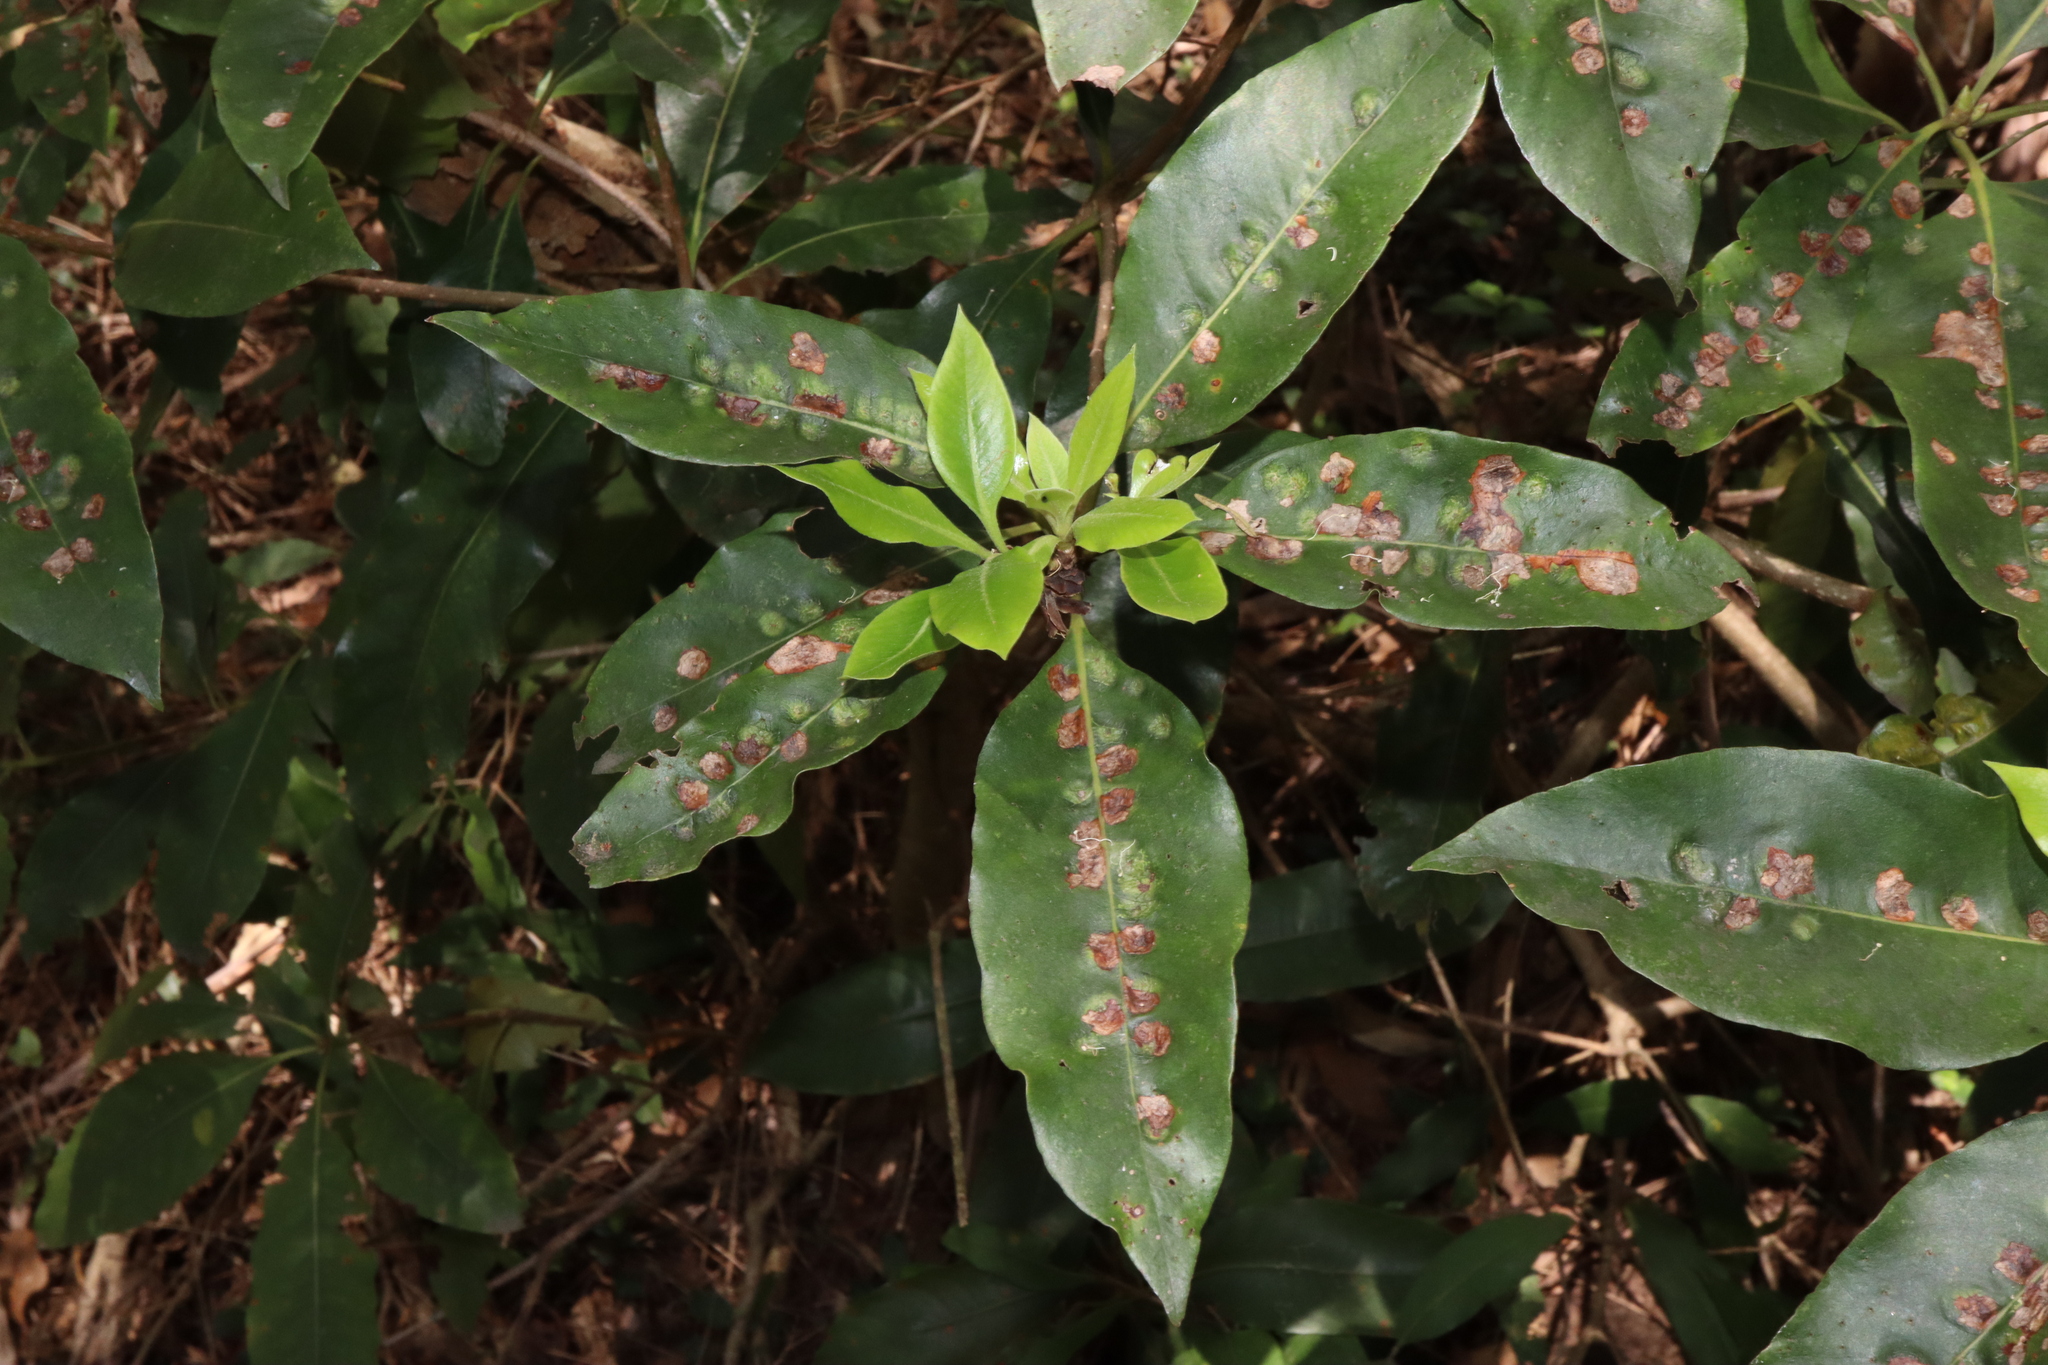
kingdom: Animalia
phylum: Arthropoda
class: Insecta
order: Diptera
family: Agromyzidae
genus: Phytoliriomyza
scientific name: Phytoliriomyza pittosporophylli
